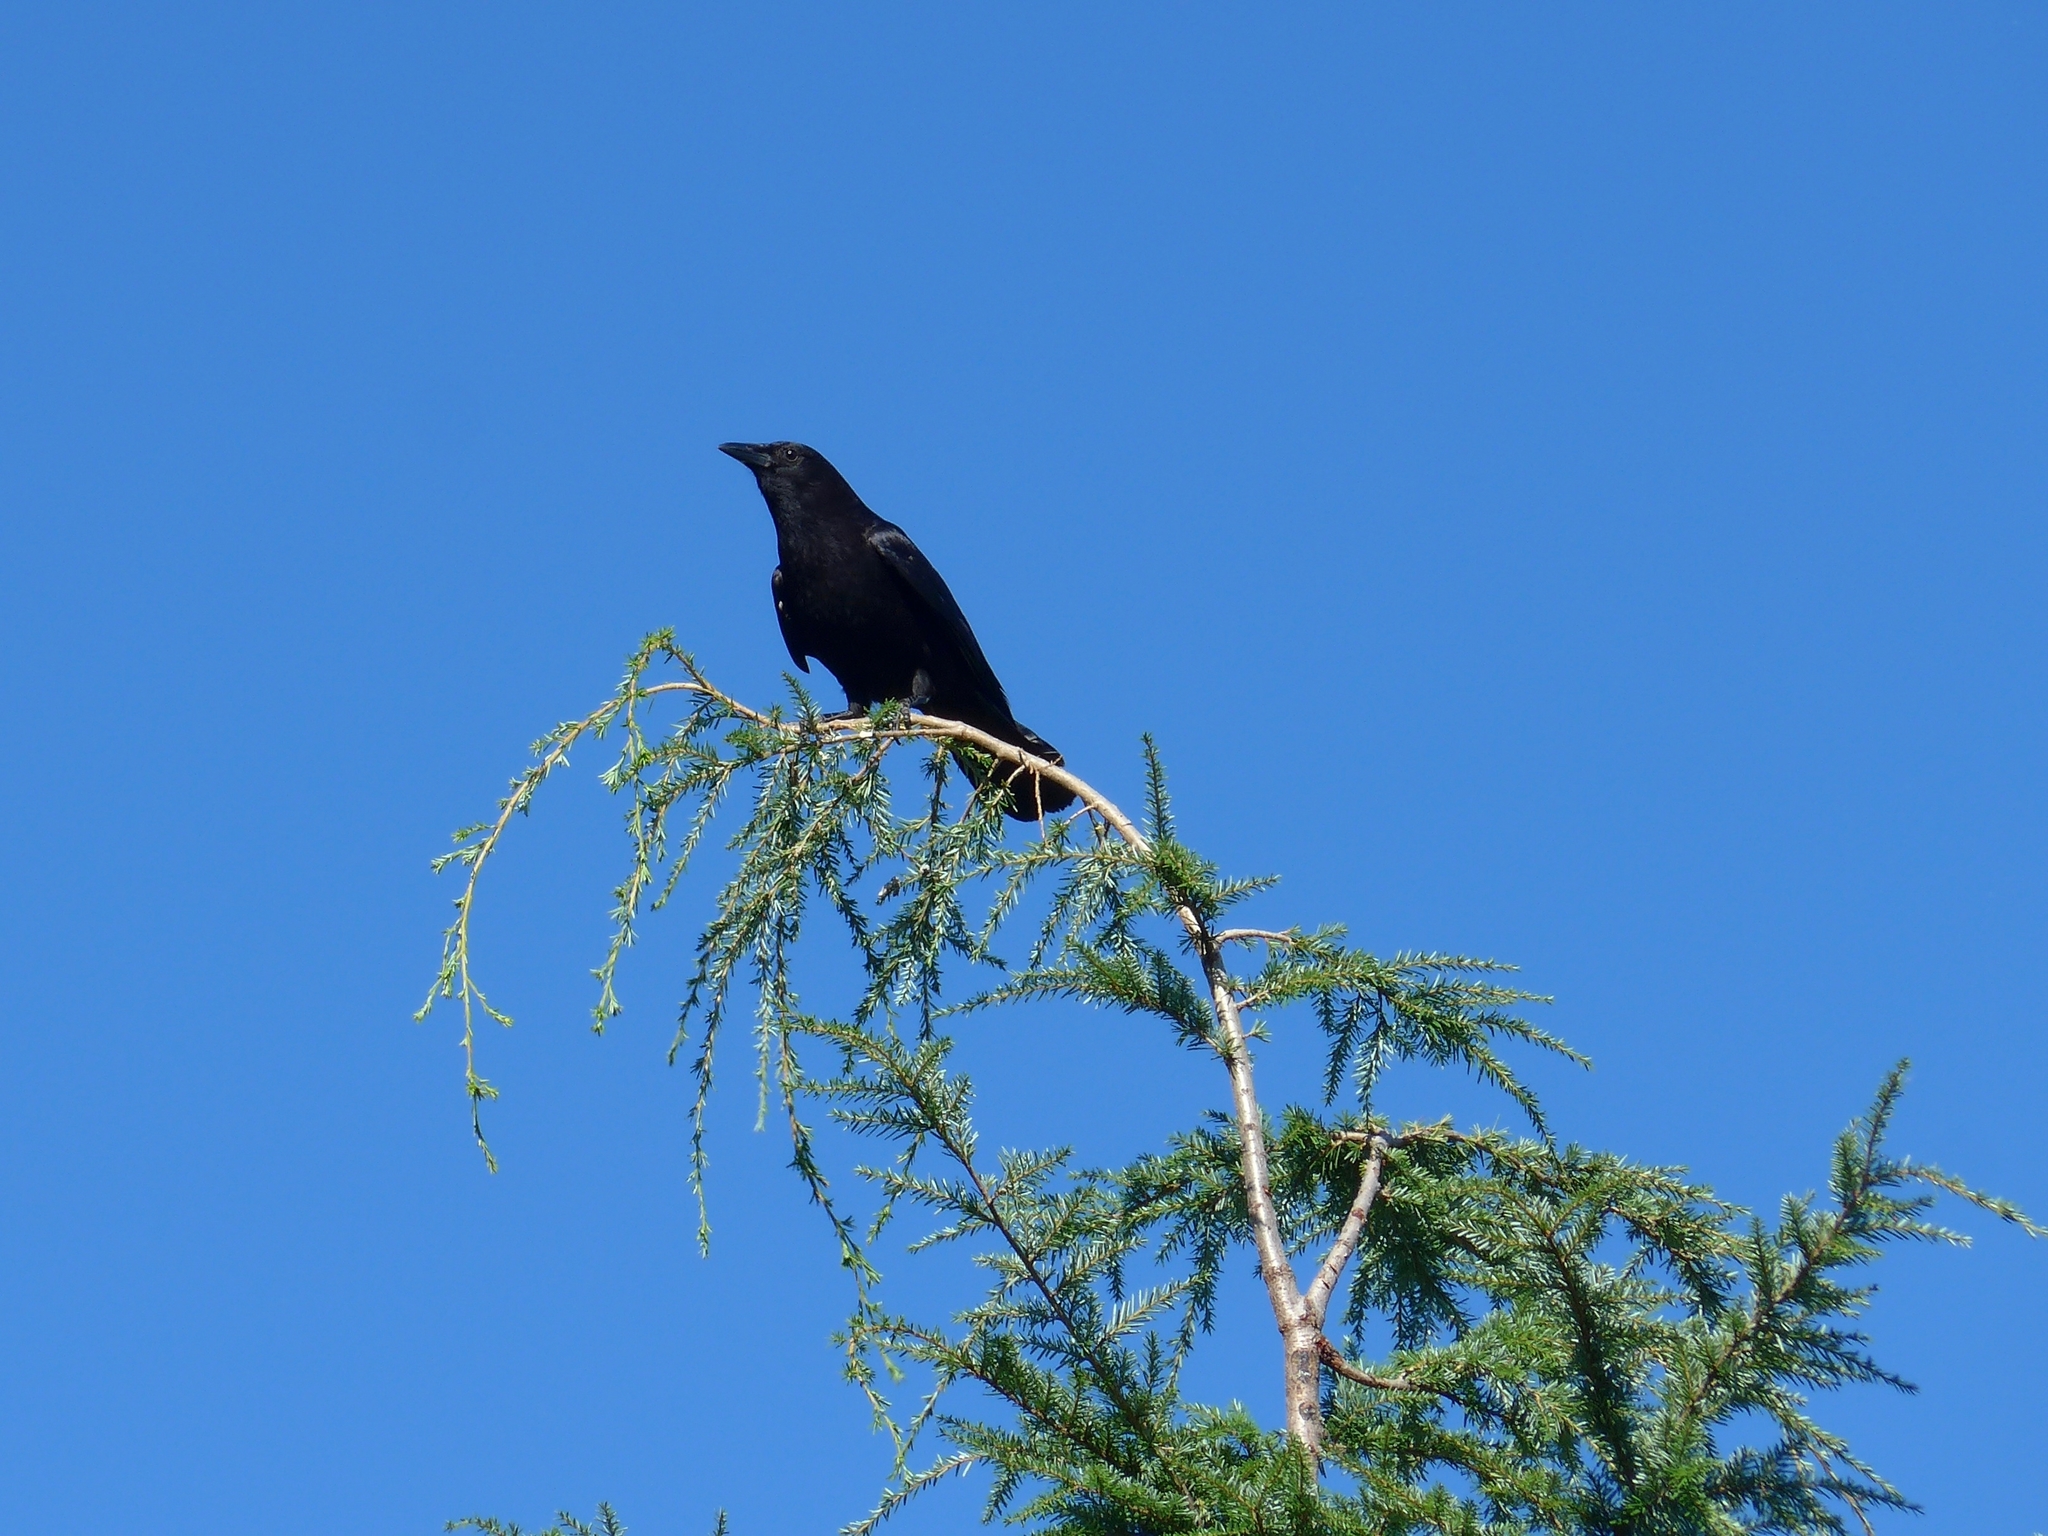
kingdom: Animalia
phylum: Chordata
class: Aves
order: Passeriformes
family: Corvidae
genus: Corvus
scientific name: Corvus brachyrhynchos
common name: American crow
